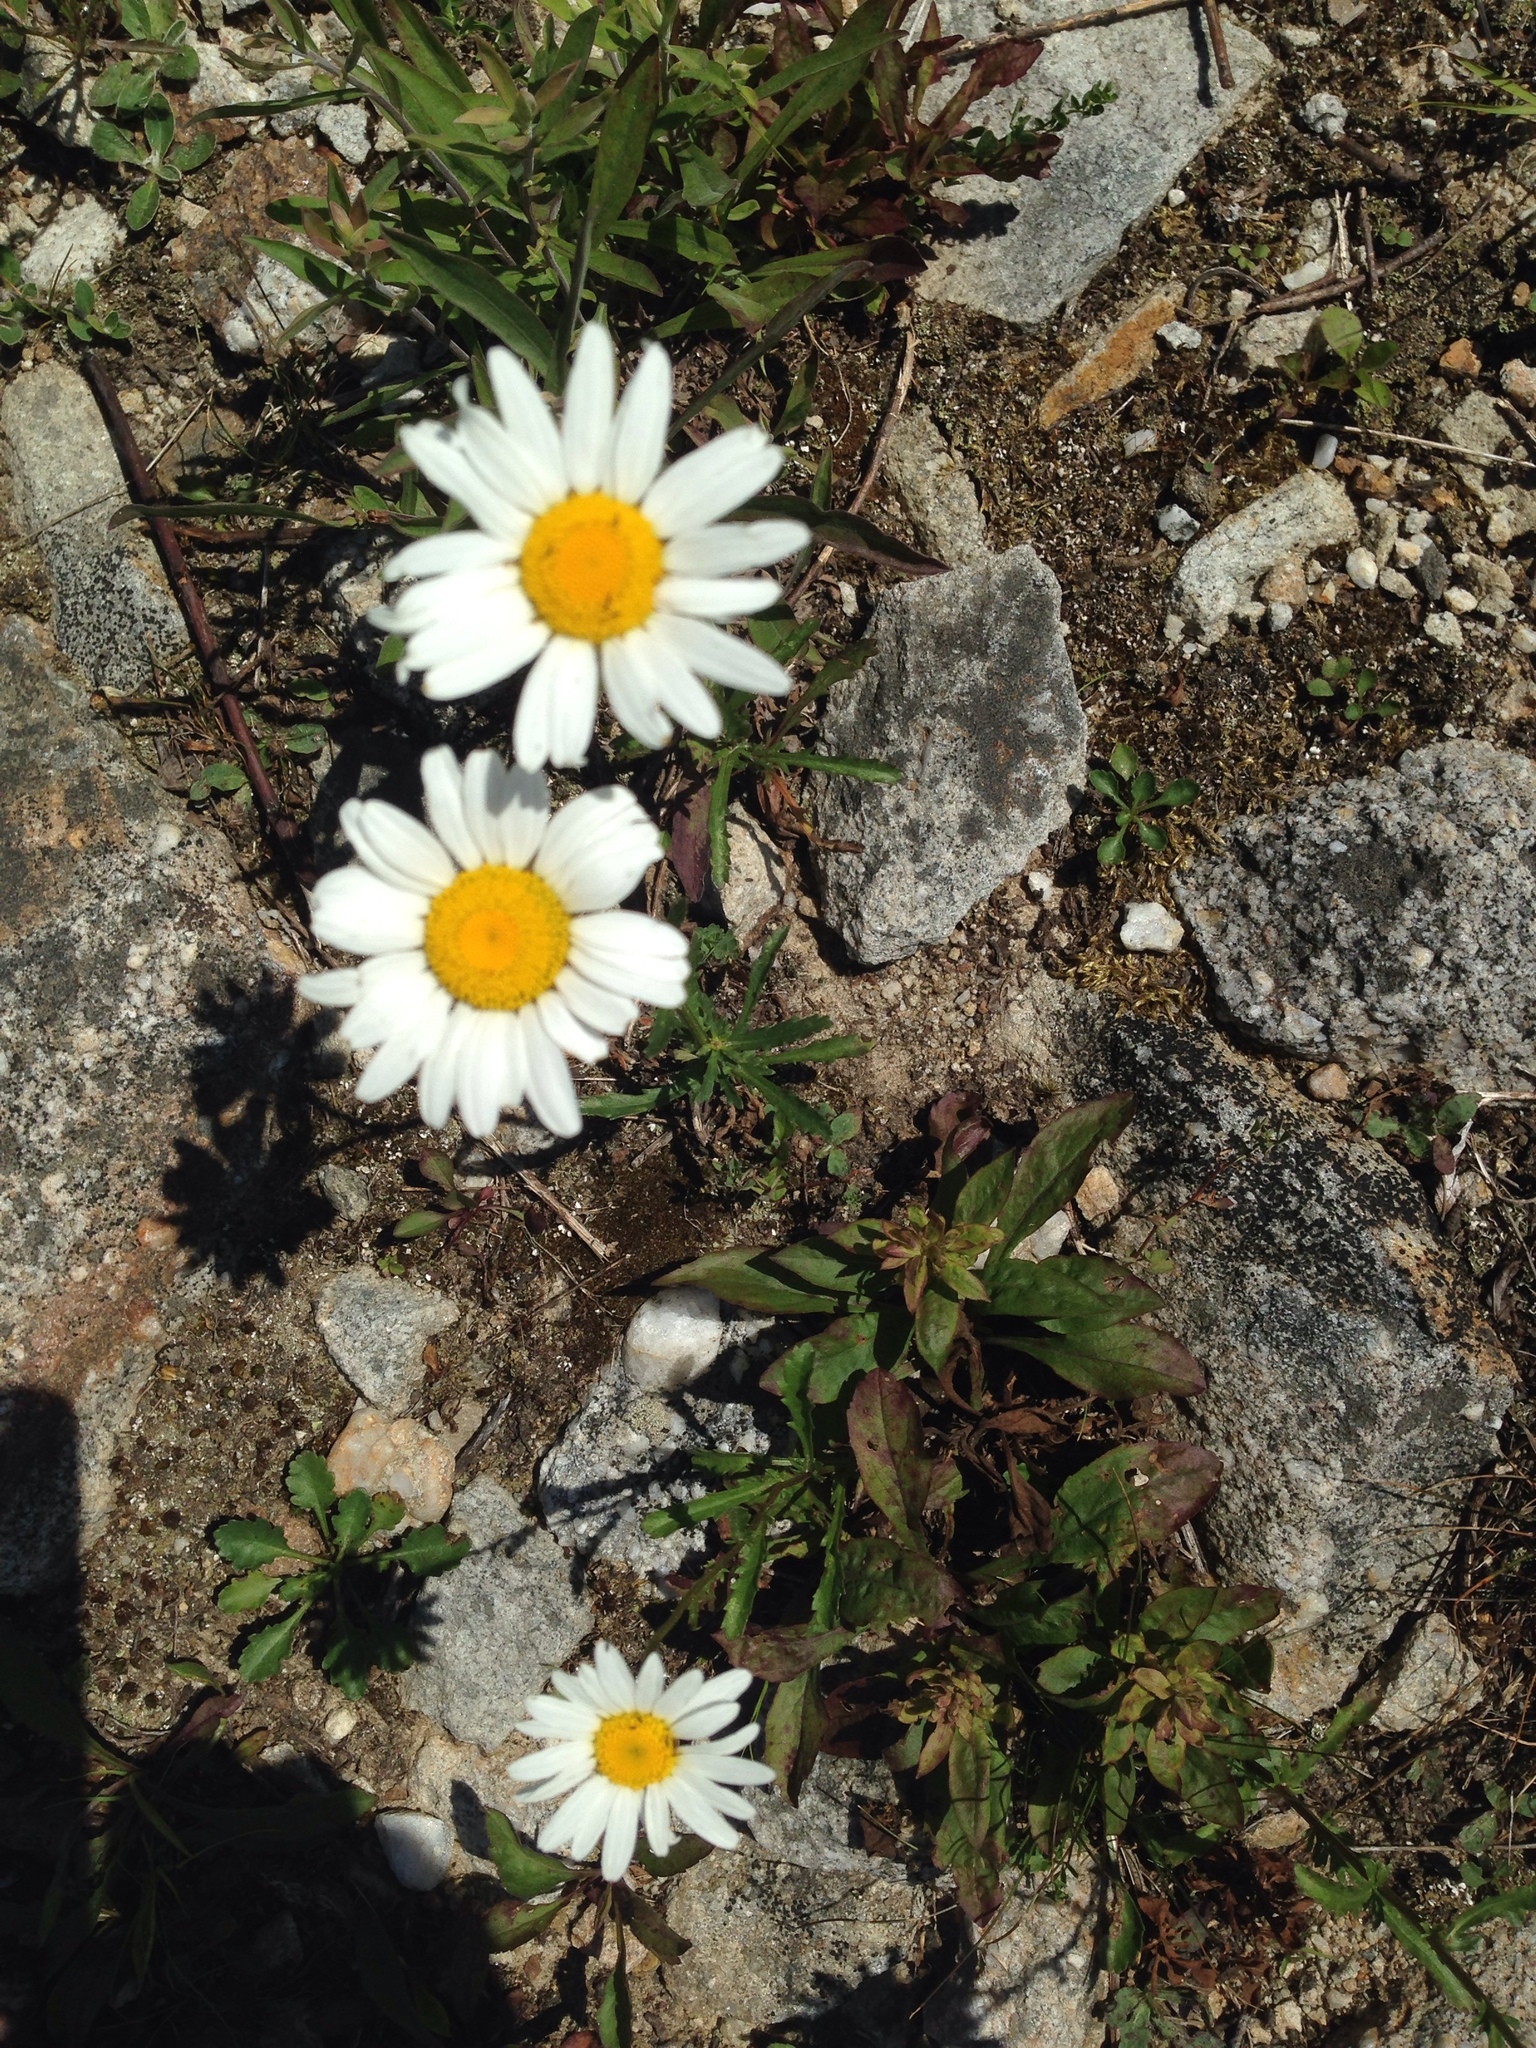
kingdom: Plantae
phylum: Tracheophyta
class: Magnoliopsida
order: Asterales
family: Asteraceae
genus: Leucanthemum
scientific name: Leucanthemum vulgare
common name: Oxeye daisy
